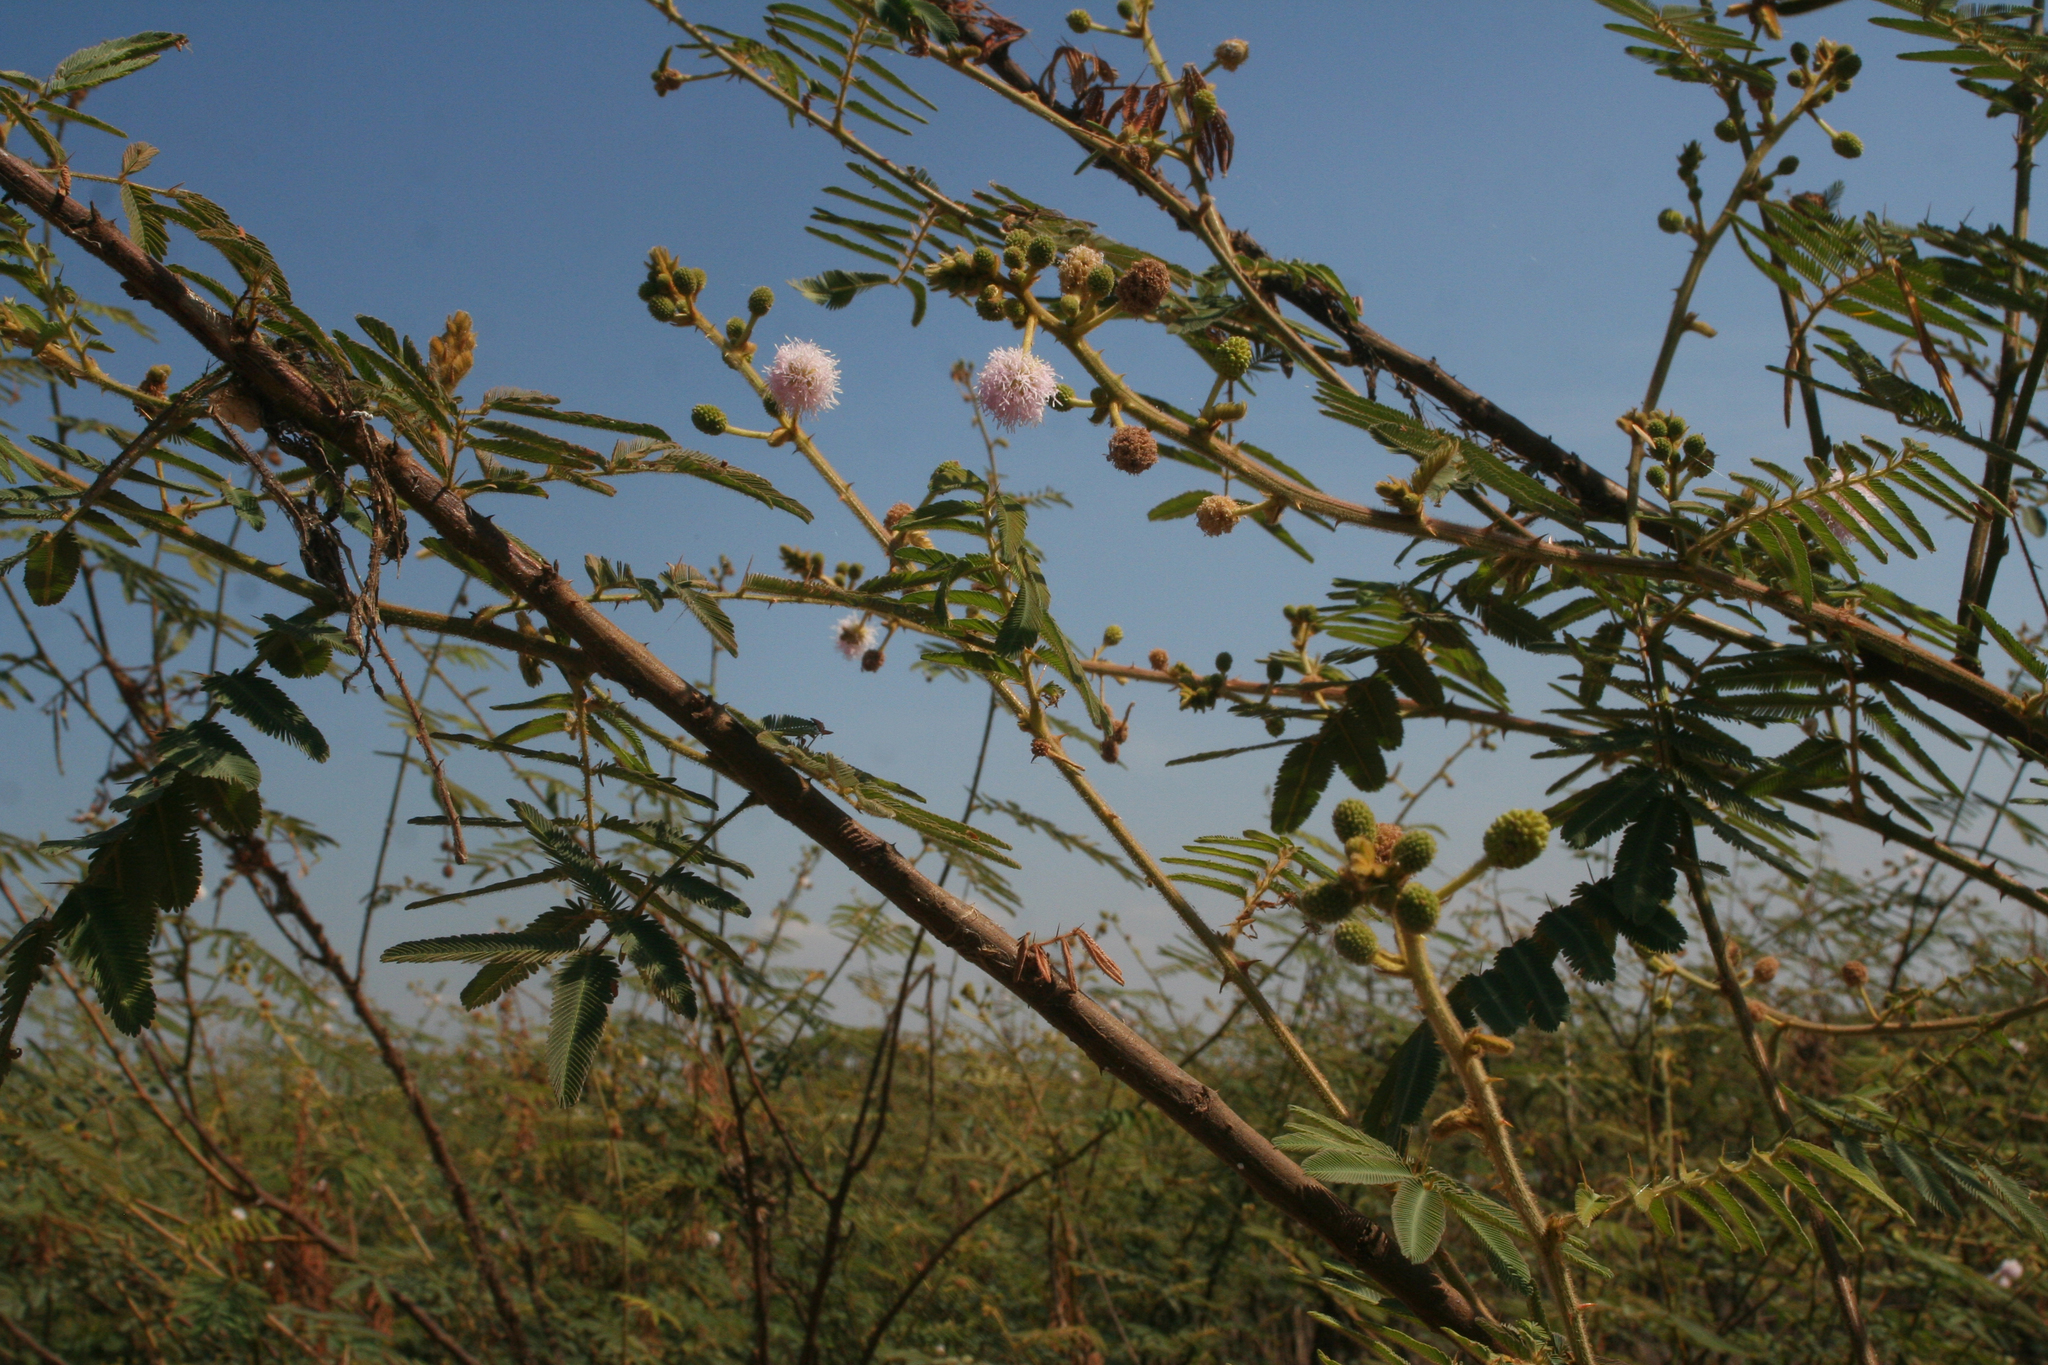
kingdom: Plantae
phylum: Tracheophyta
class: Magnoliopsida
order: Fabales
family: Fabaceae
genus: Mimosa
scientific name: Mimosa pigra
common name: Black mimosa
